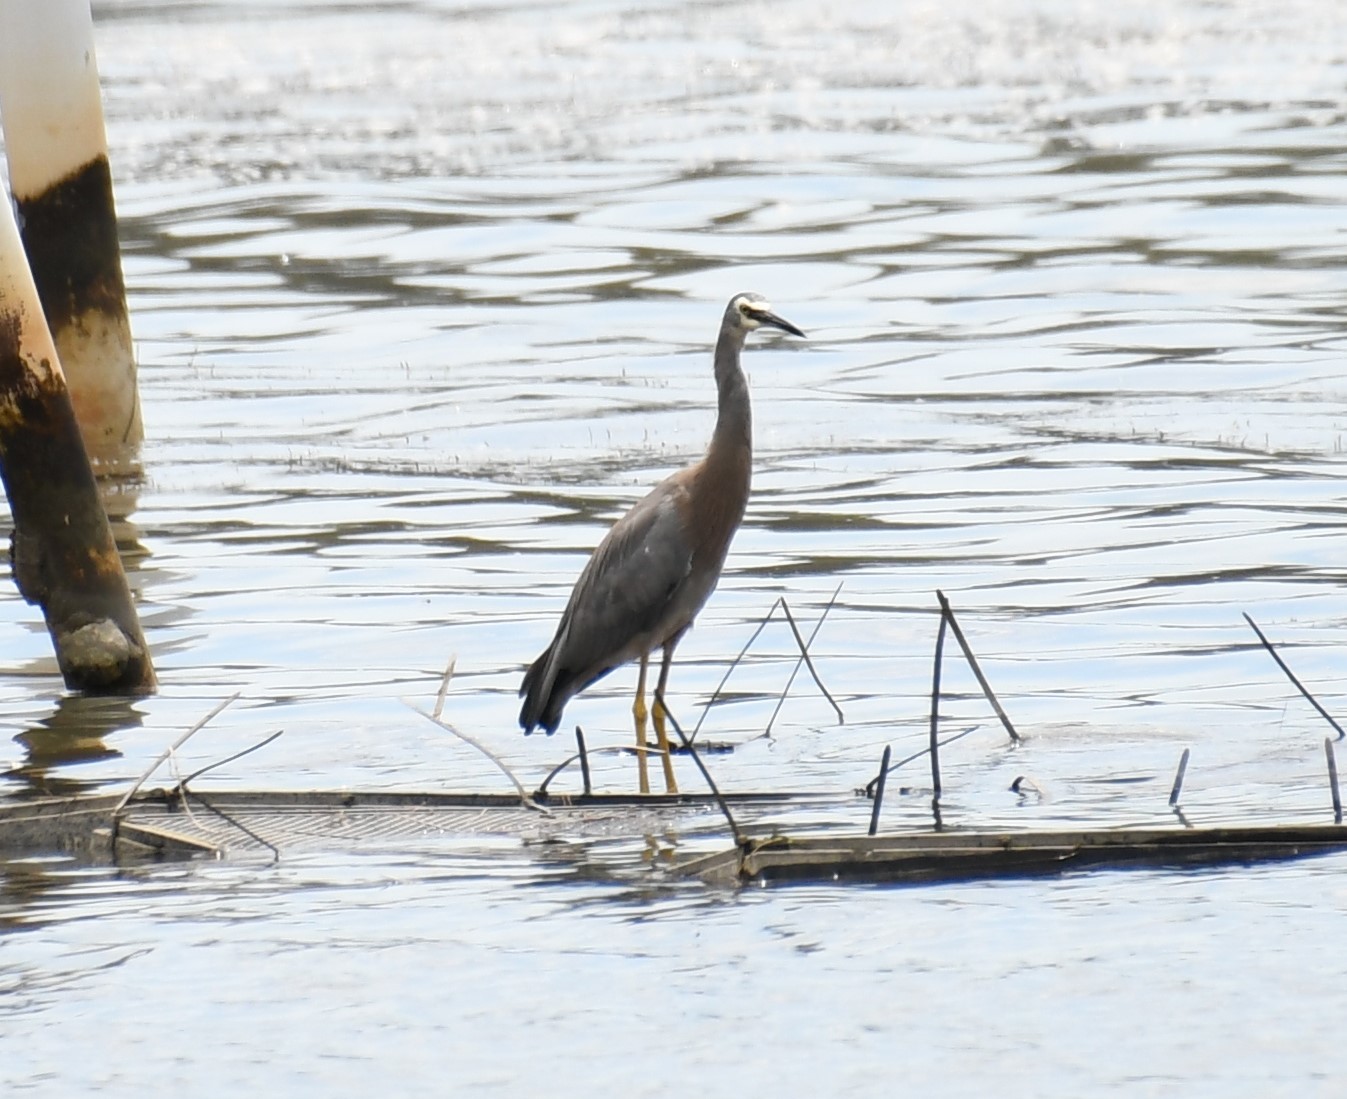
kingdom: Animalia
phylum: Chordata
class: Aves
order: Pelecaniformes
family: Ardeidae
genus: Egretta
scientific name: Egretta novaehollandiae
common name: White-faced heron
